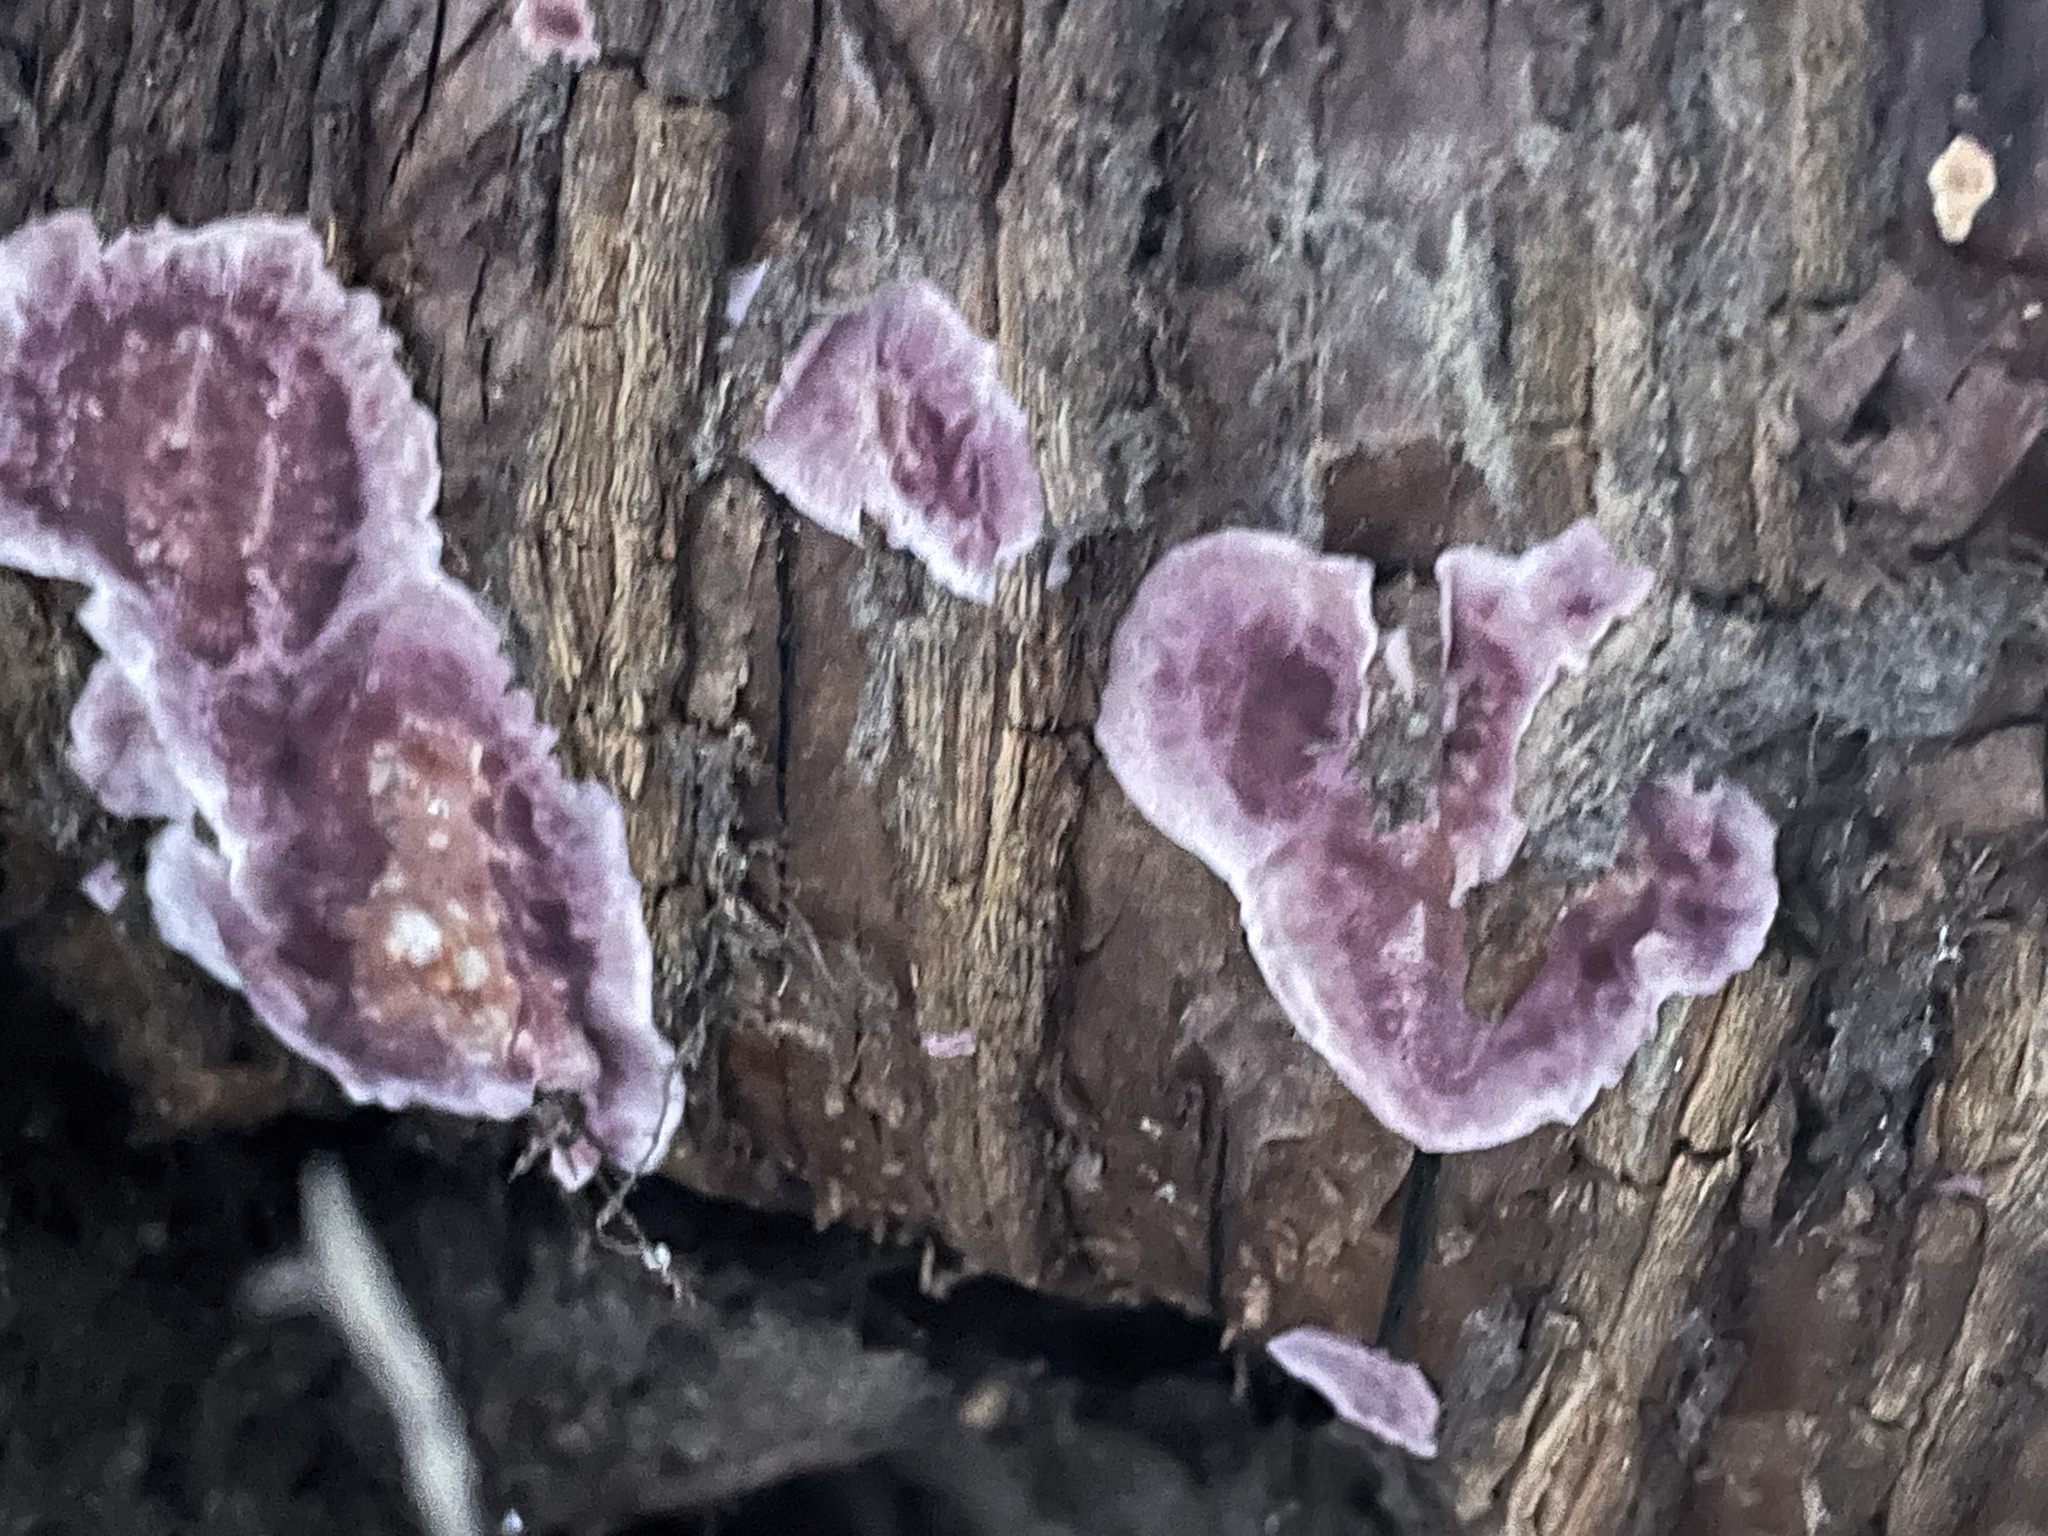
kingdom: Fungi
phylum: Basidiomycota
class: Agaricomycetes
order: Agaricales
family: Cyphellaceae
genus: Chondrostereum
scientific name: Chondrostereum purpureum
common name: Silver leaf disease
